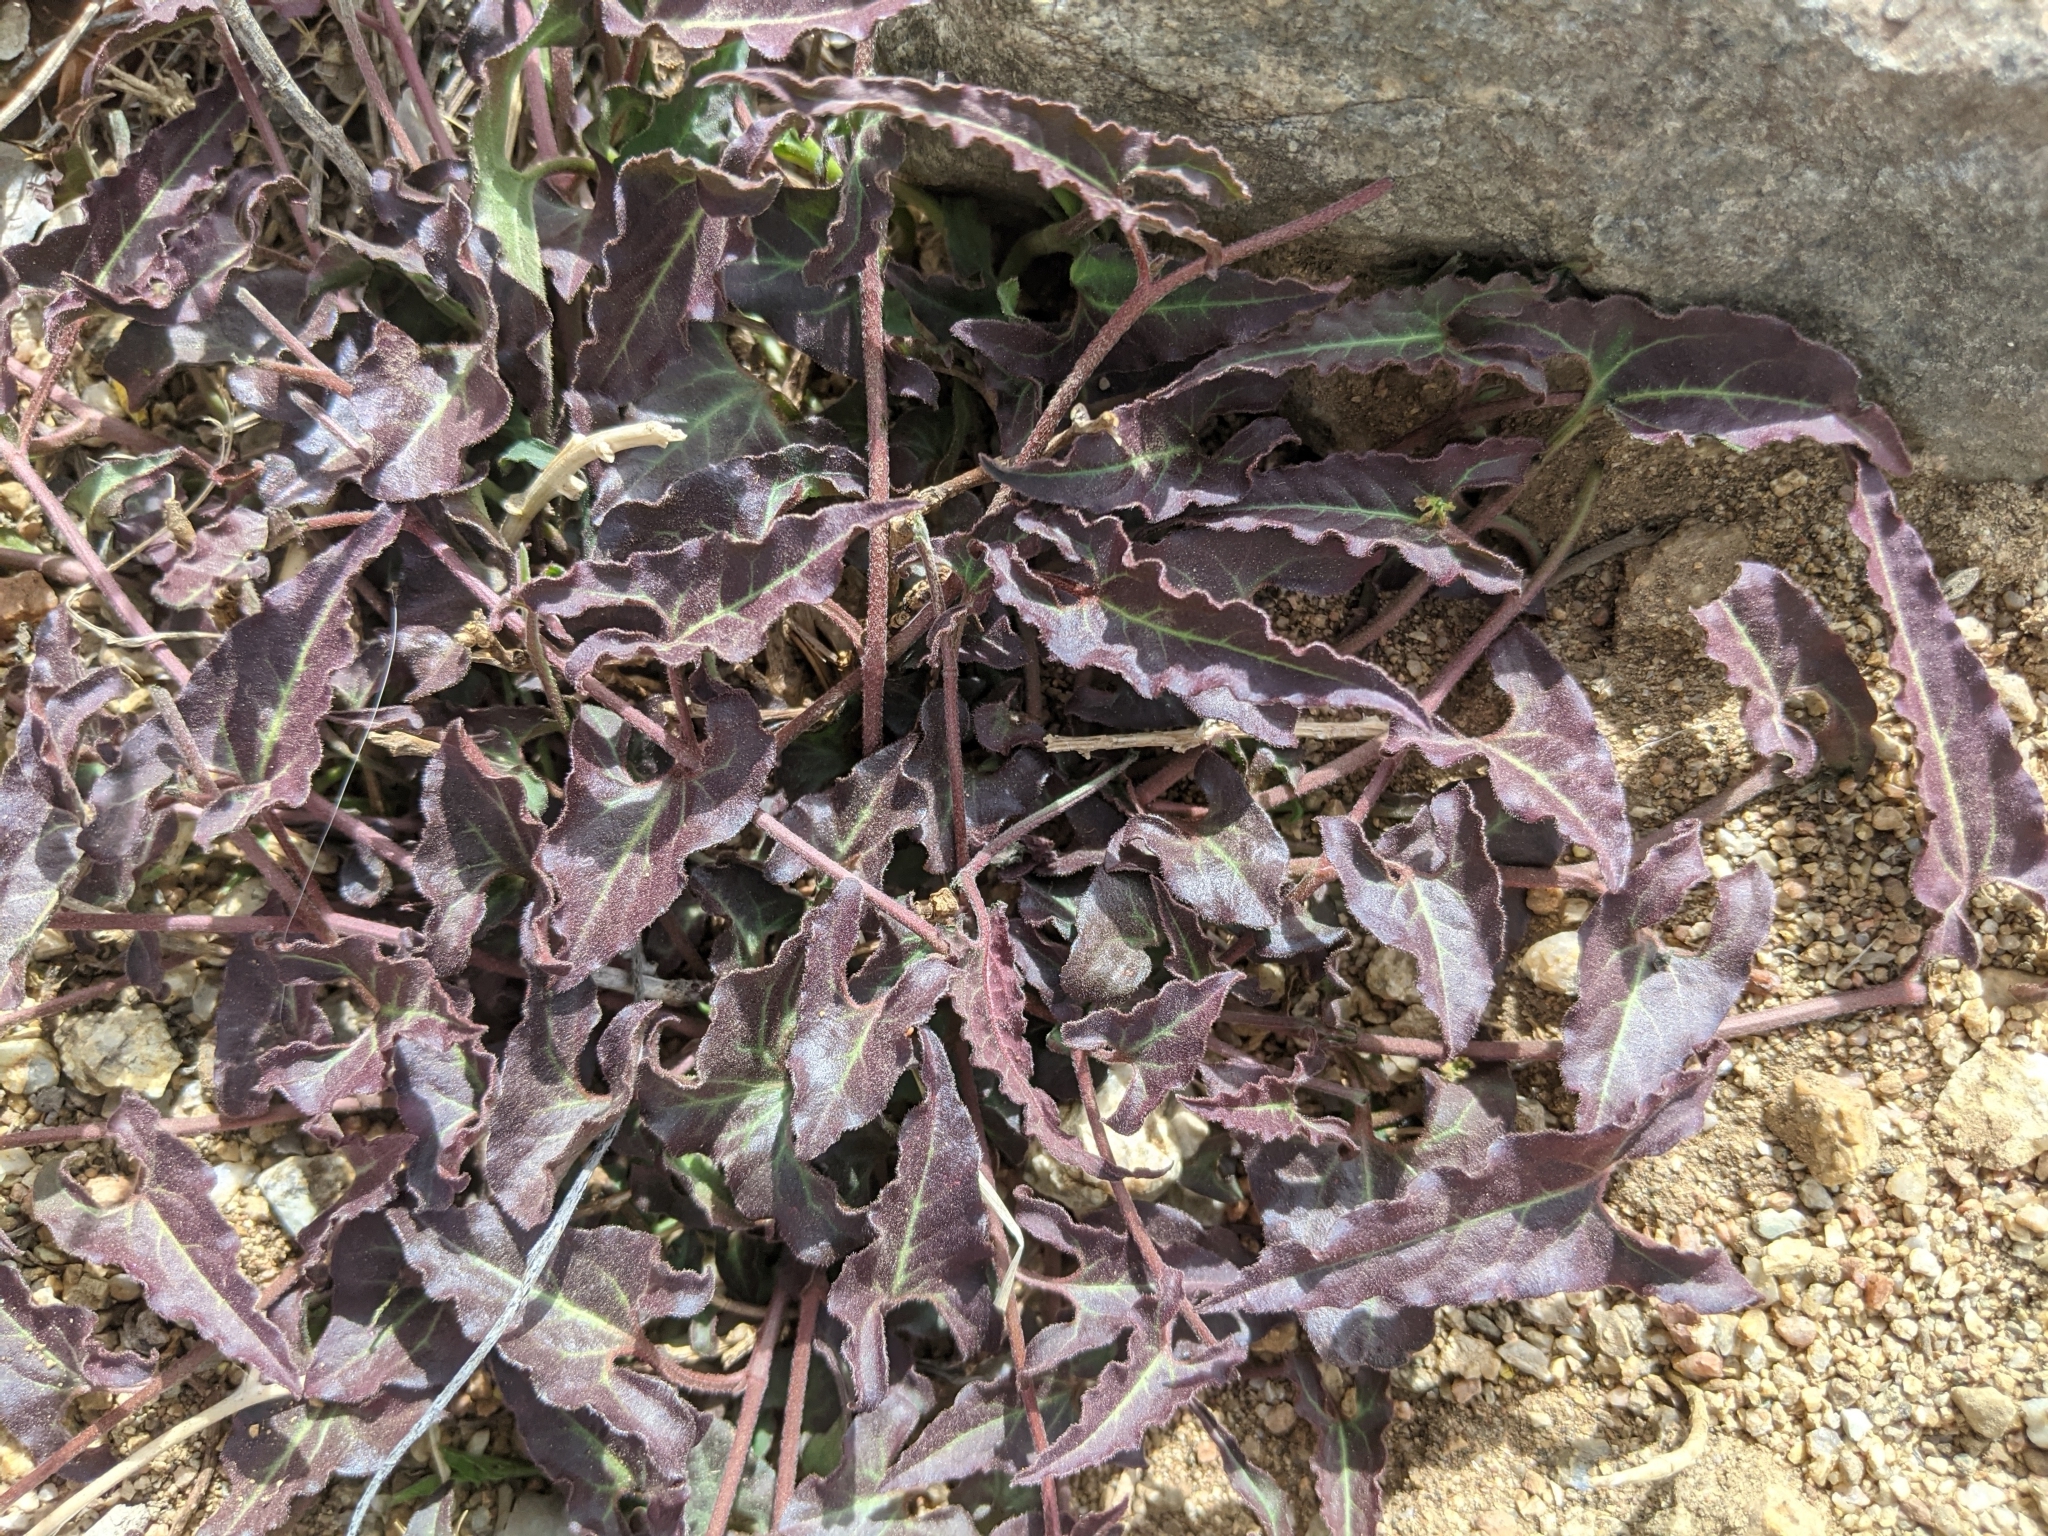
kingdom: Plantae
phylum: Tracheophyta
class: Magnoliopsida
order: Piperales
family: Aristolochiaceae
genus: Aristolochia
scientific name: Aristolochia watsonii
